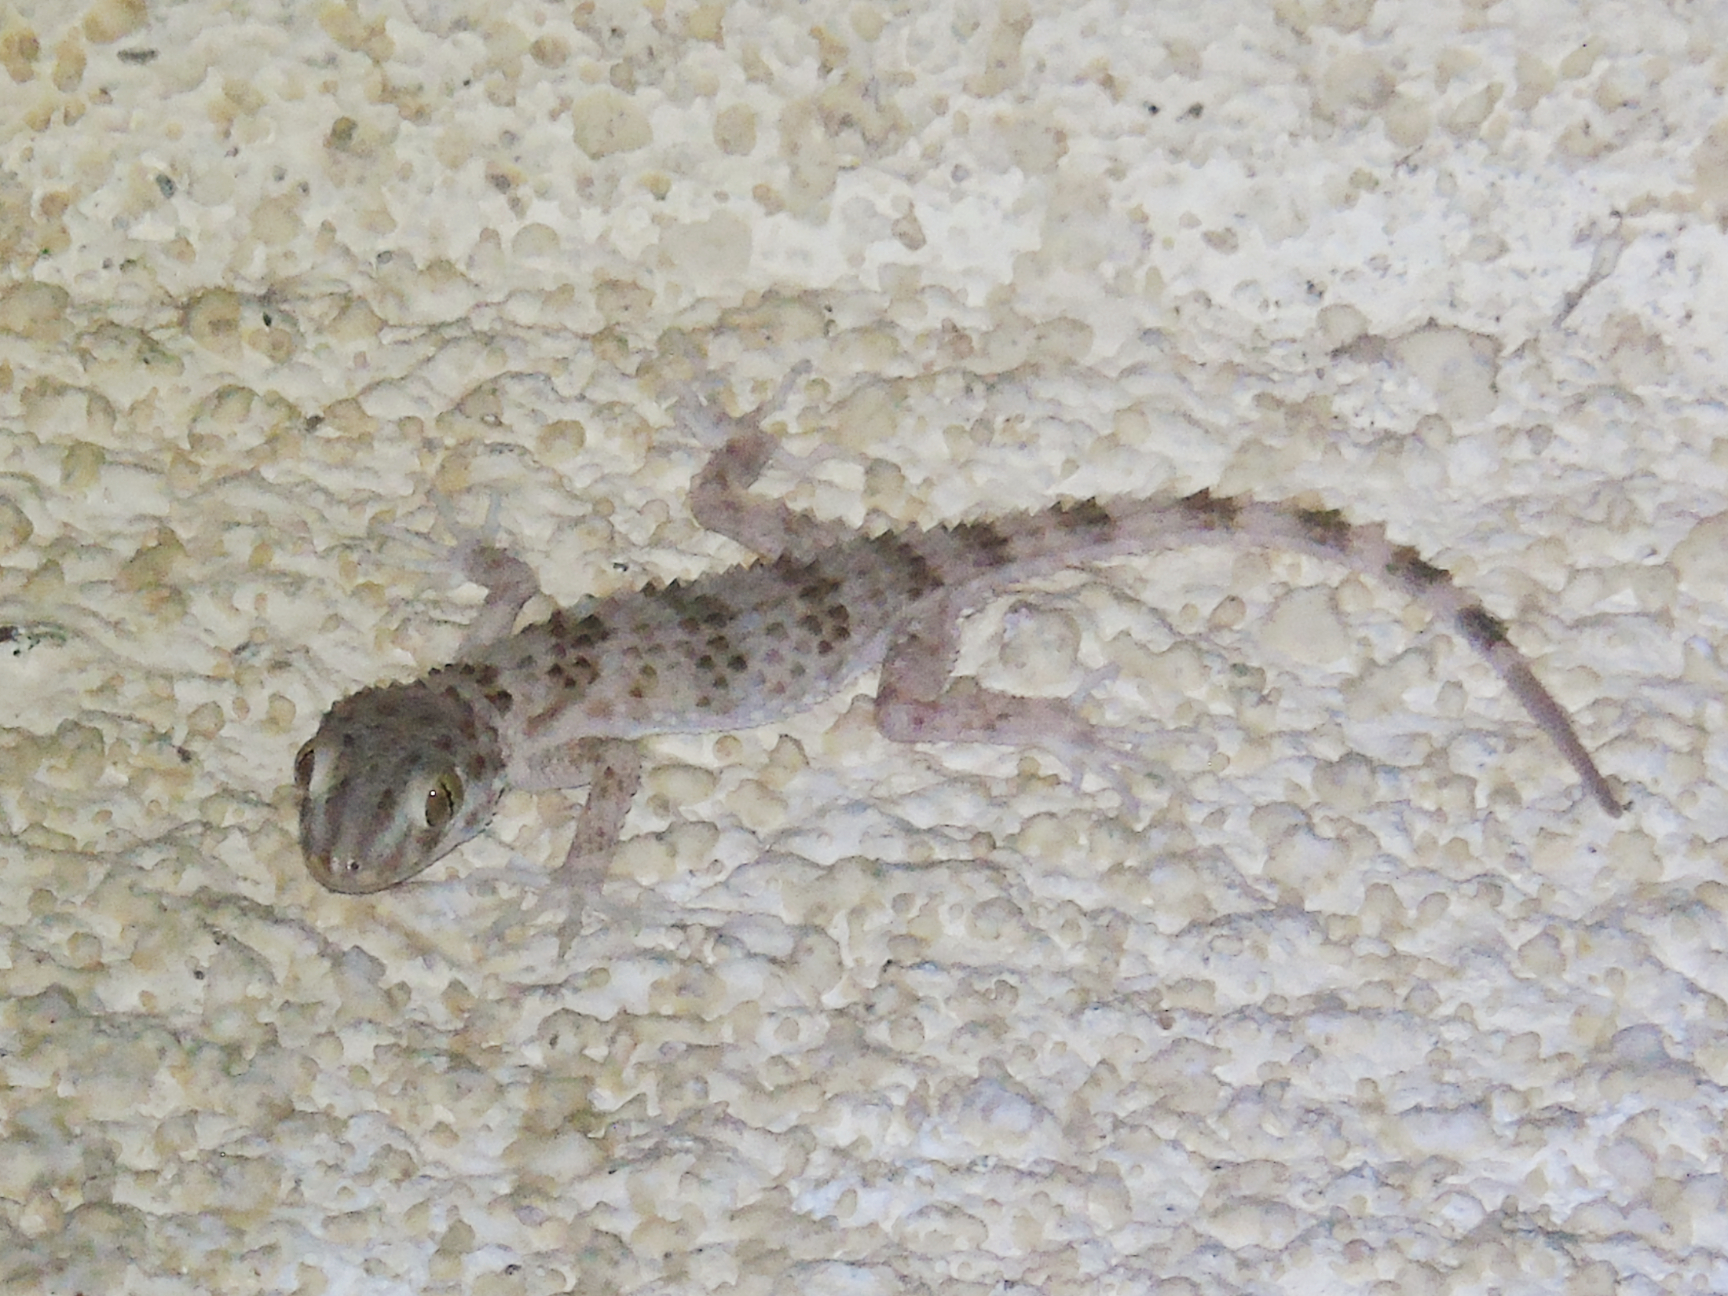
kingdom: Animalia
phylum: Chordata
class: Squamata
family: Gekkonidae
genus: Tenuidactylus
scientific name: Tenuidactylus caspius
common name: Caspian bent-toed gecko
